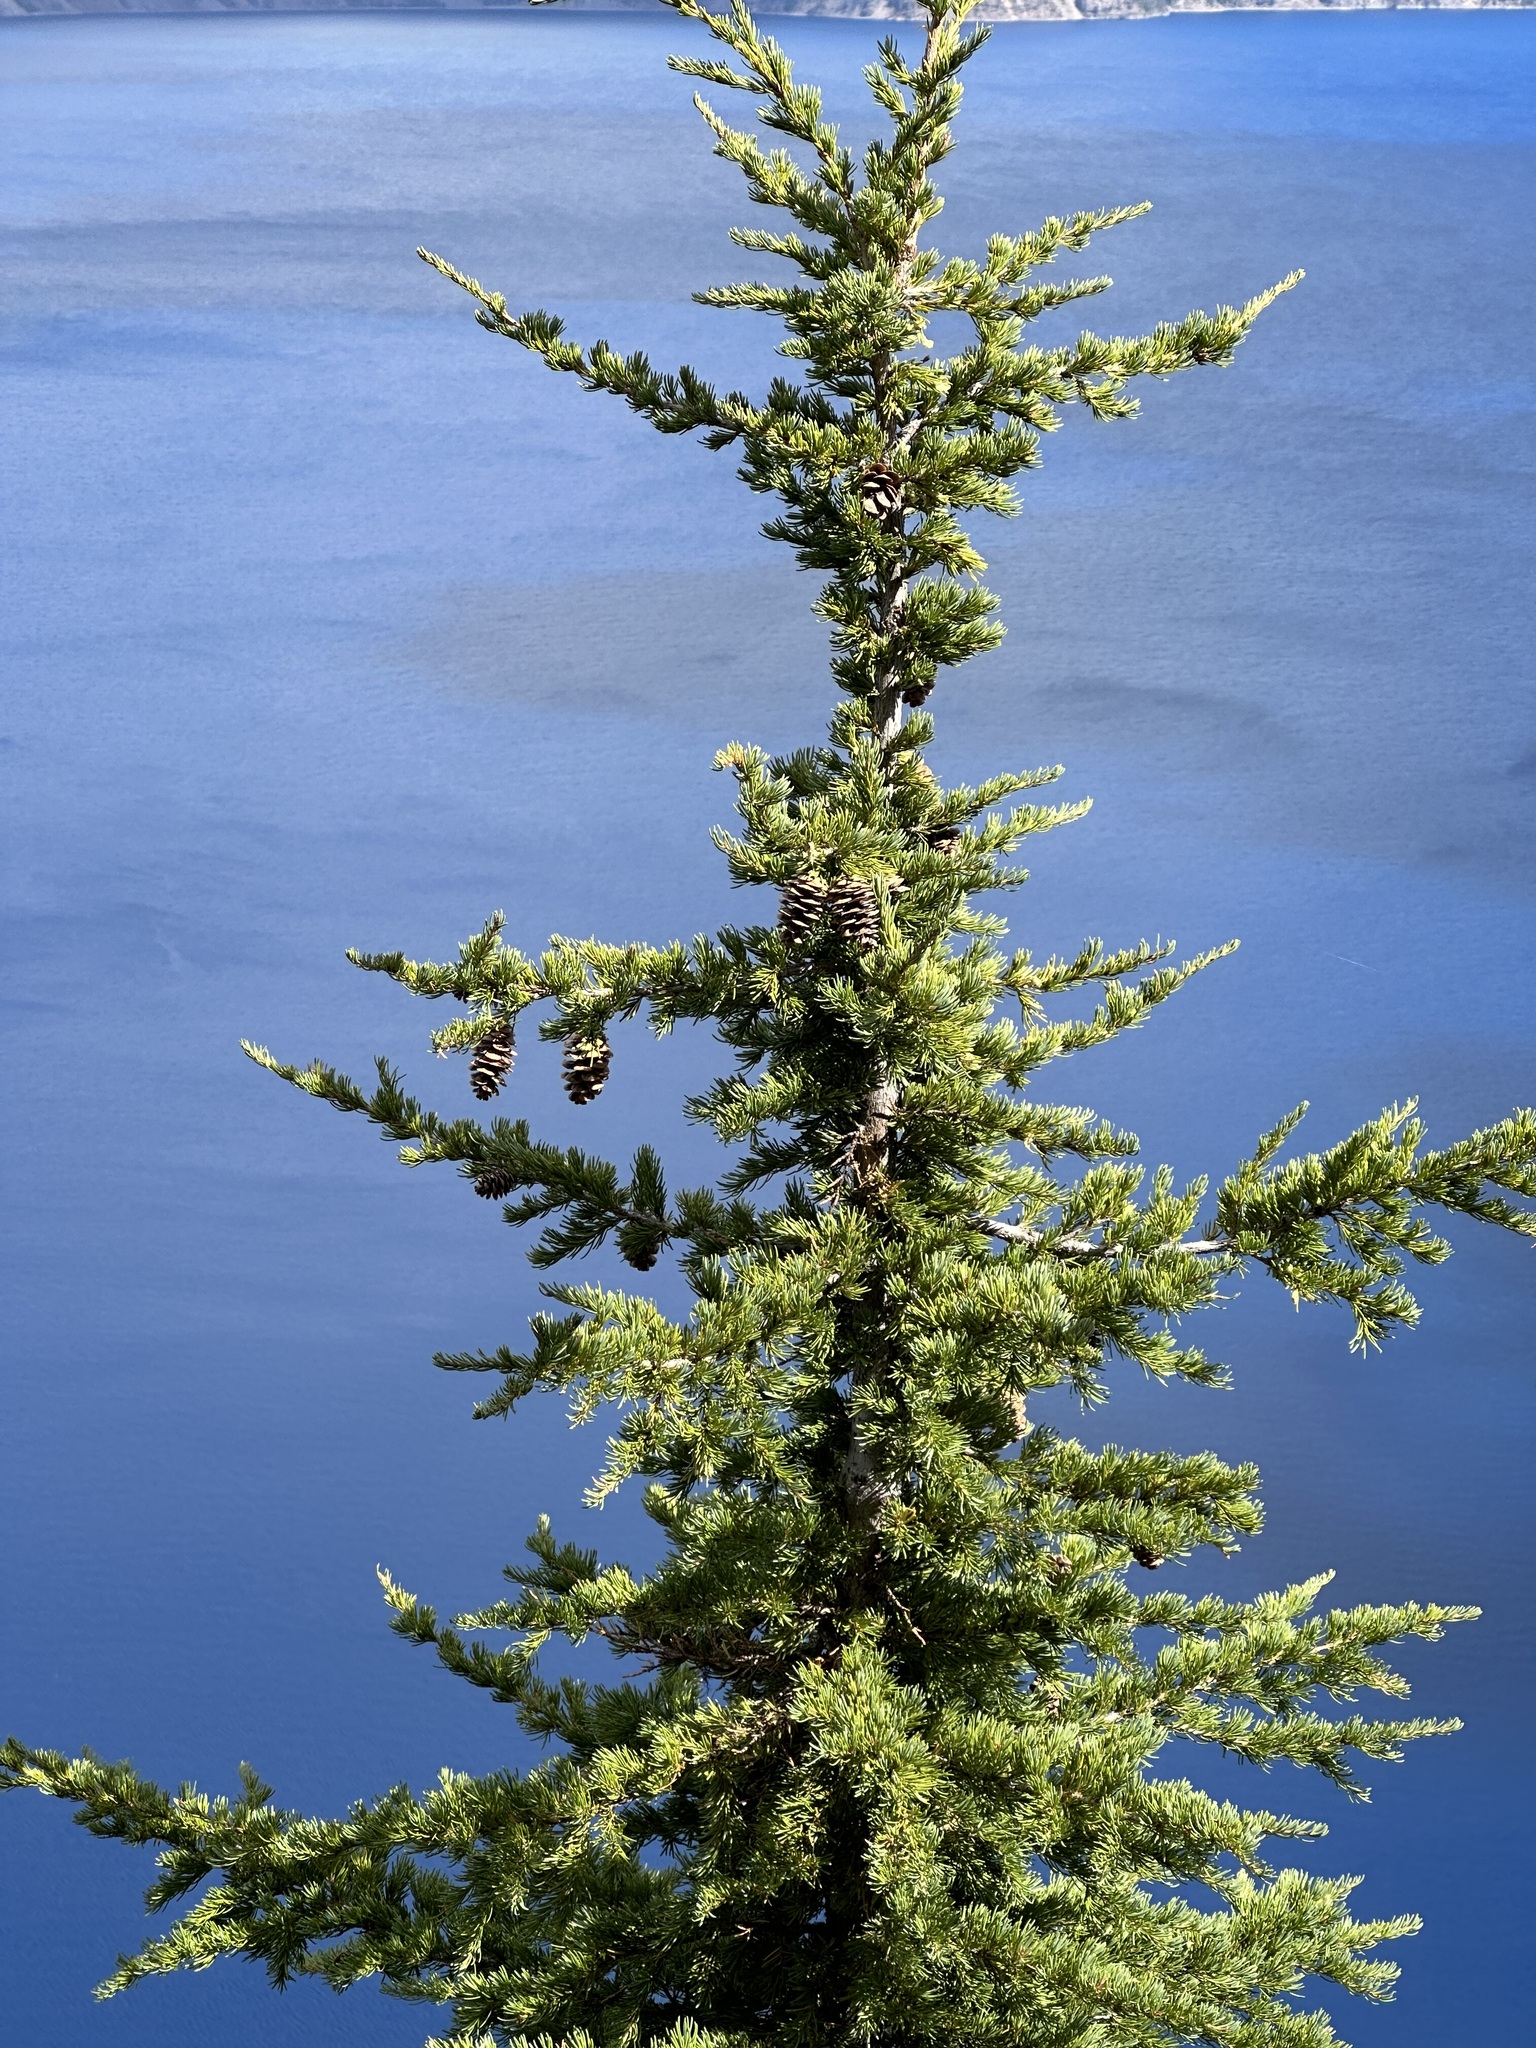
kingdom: Plantae
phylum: Tracheophyta
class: Pinopsida
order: Pinales
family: Pinaceae
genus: Tsuga
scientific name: Tsuga mertensiana
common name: Mountain hemlock
